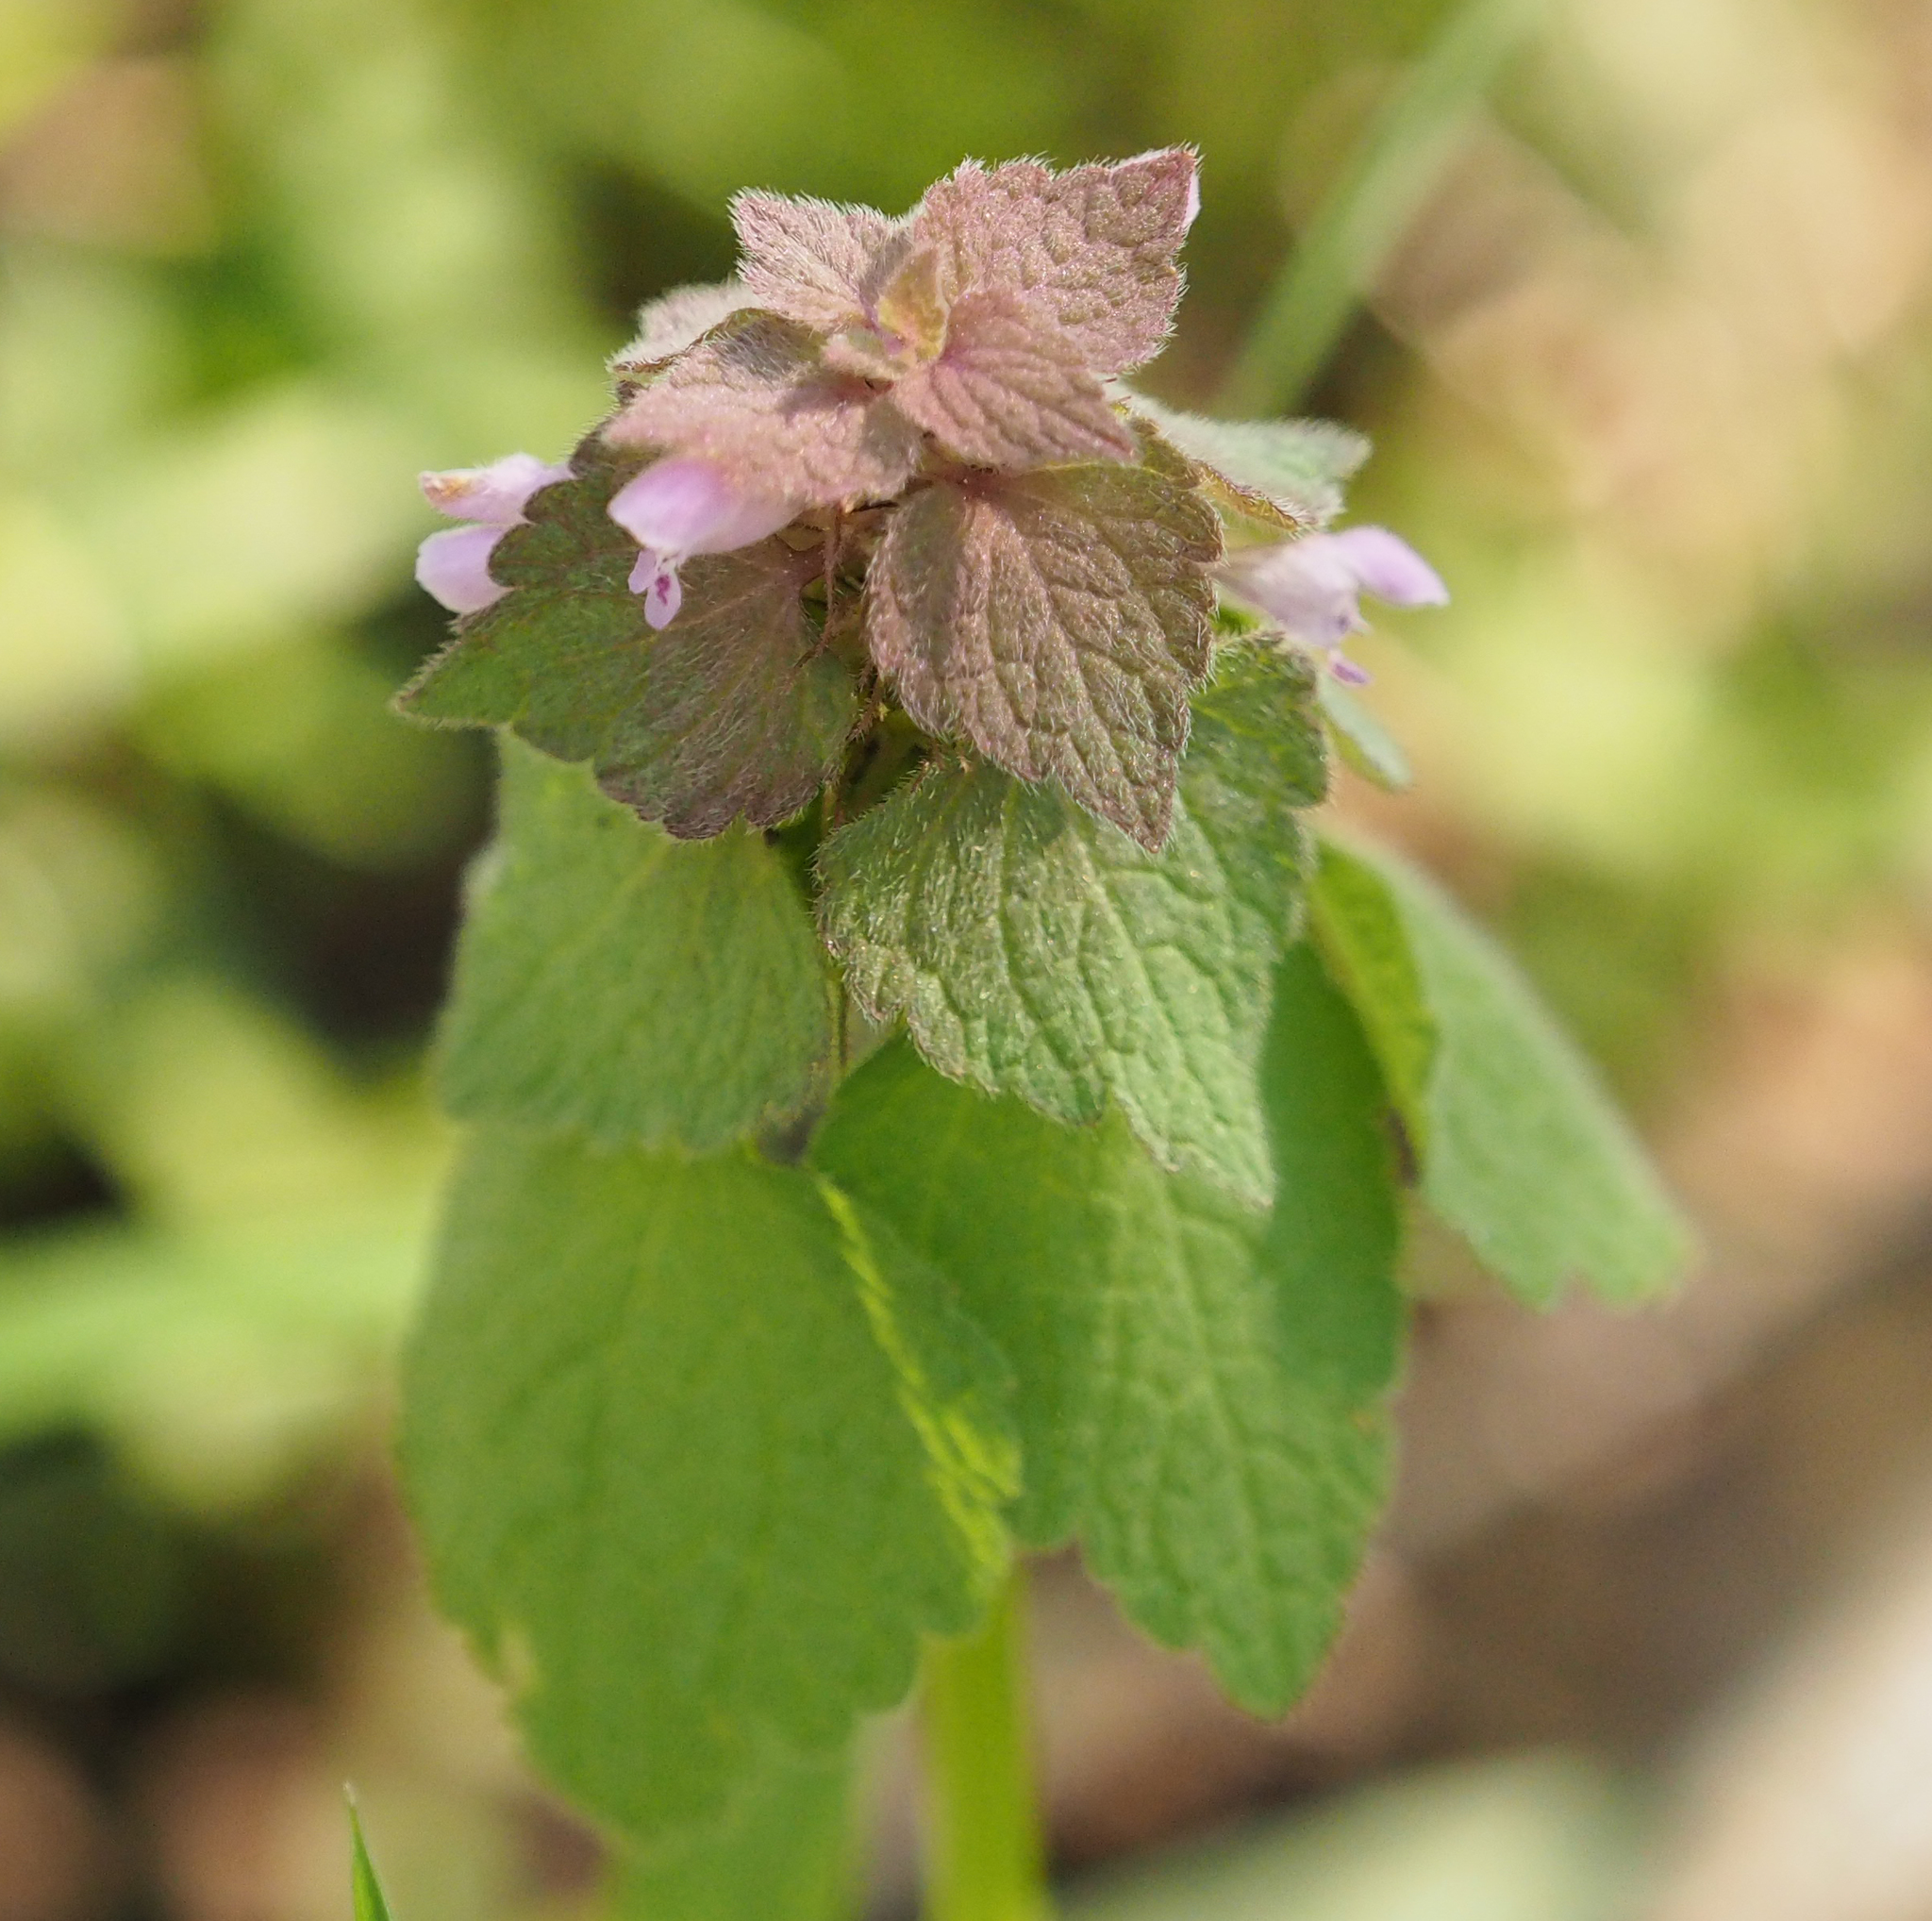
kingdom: Plantae
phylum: Tracheophyta
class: Magnoliopsida
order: Lamiales
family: Lamiaceae
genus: Lamium
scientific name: Lamium purpureum
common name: Red dead-nettle
